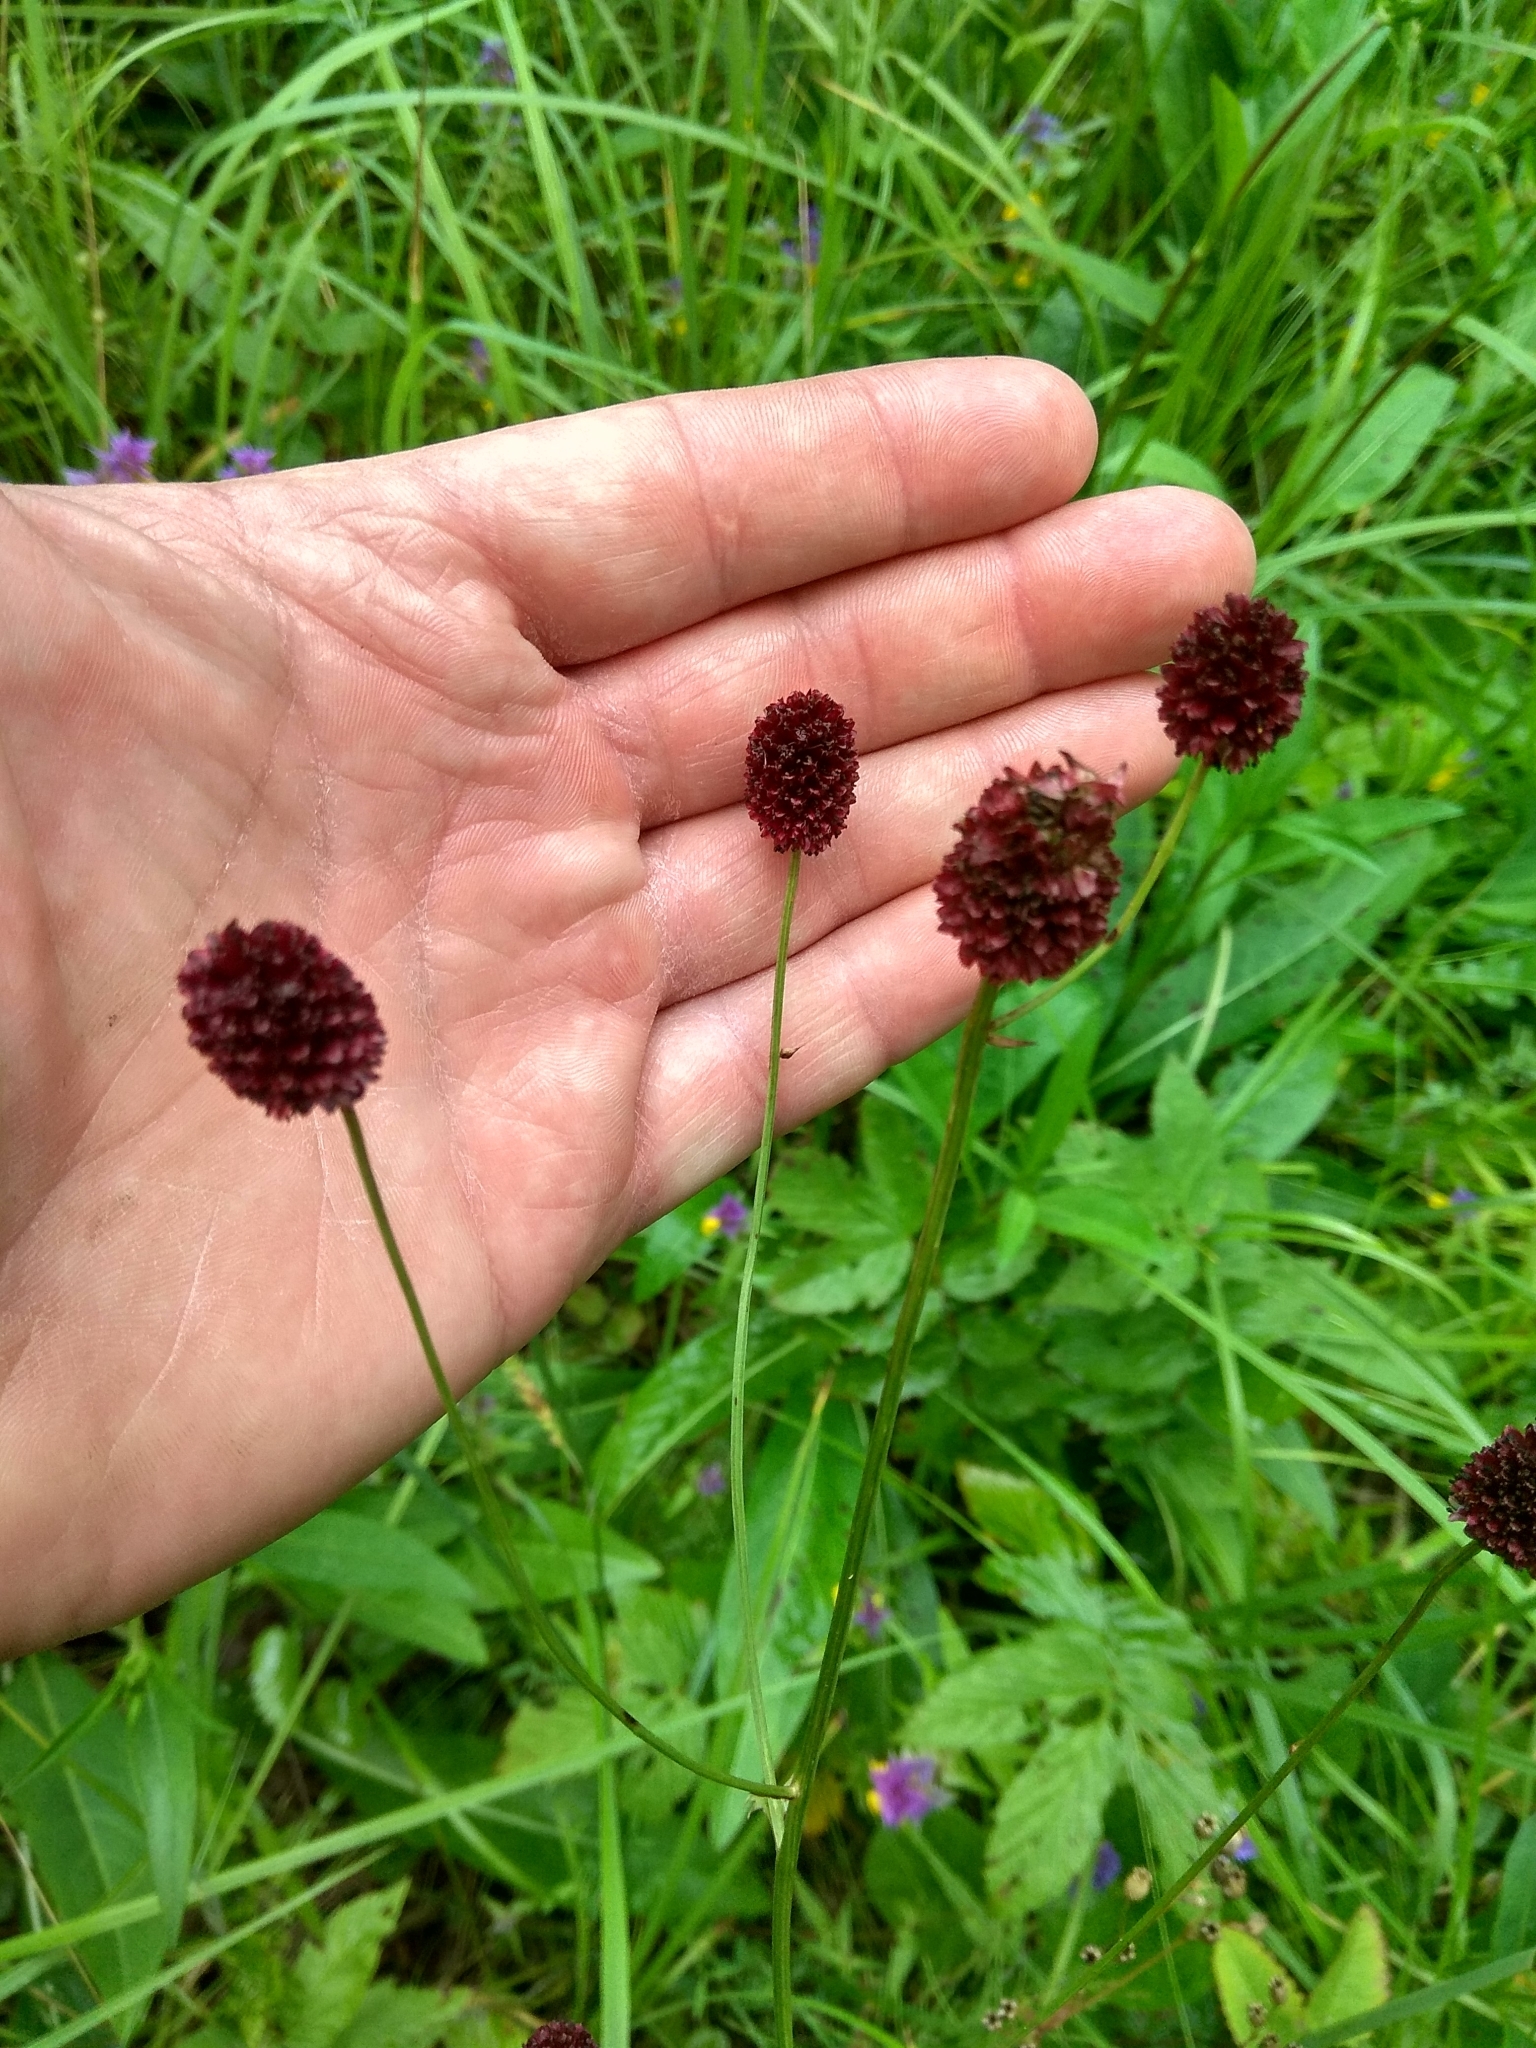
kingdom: Plantae
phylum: Tracheophyta
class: Magnoliopsida
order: Rosales
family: Rosaceae
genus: Sanguisorba
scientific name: Sanguisorba officinalis
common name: Great burnet
